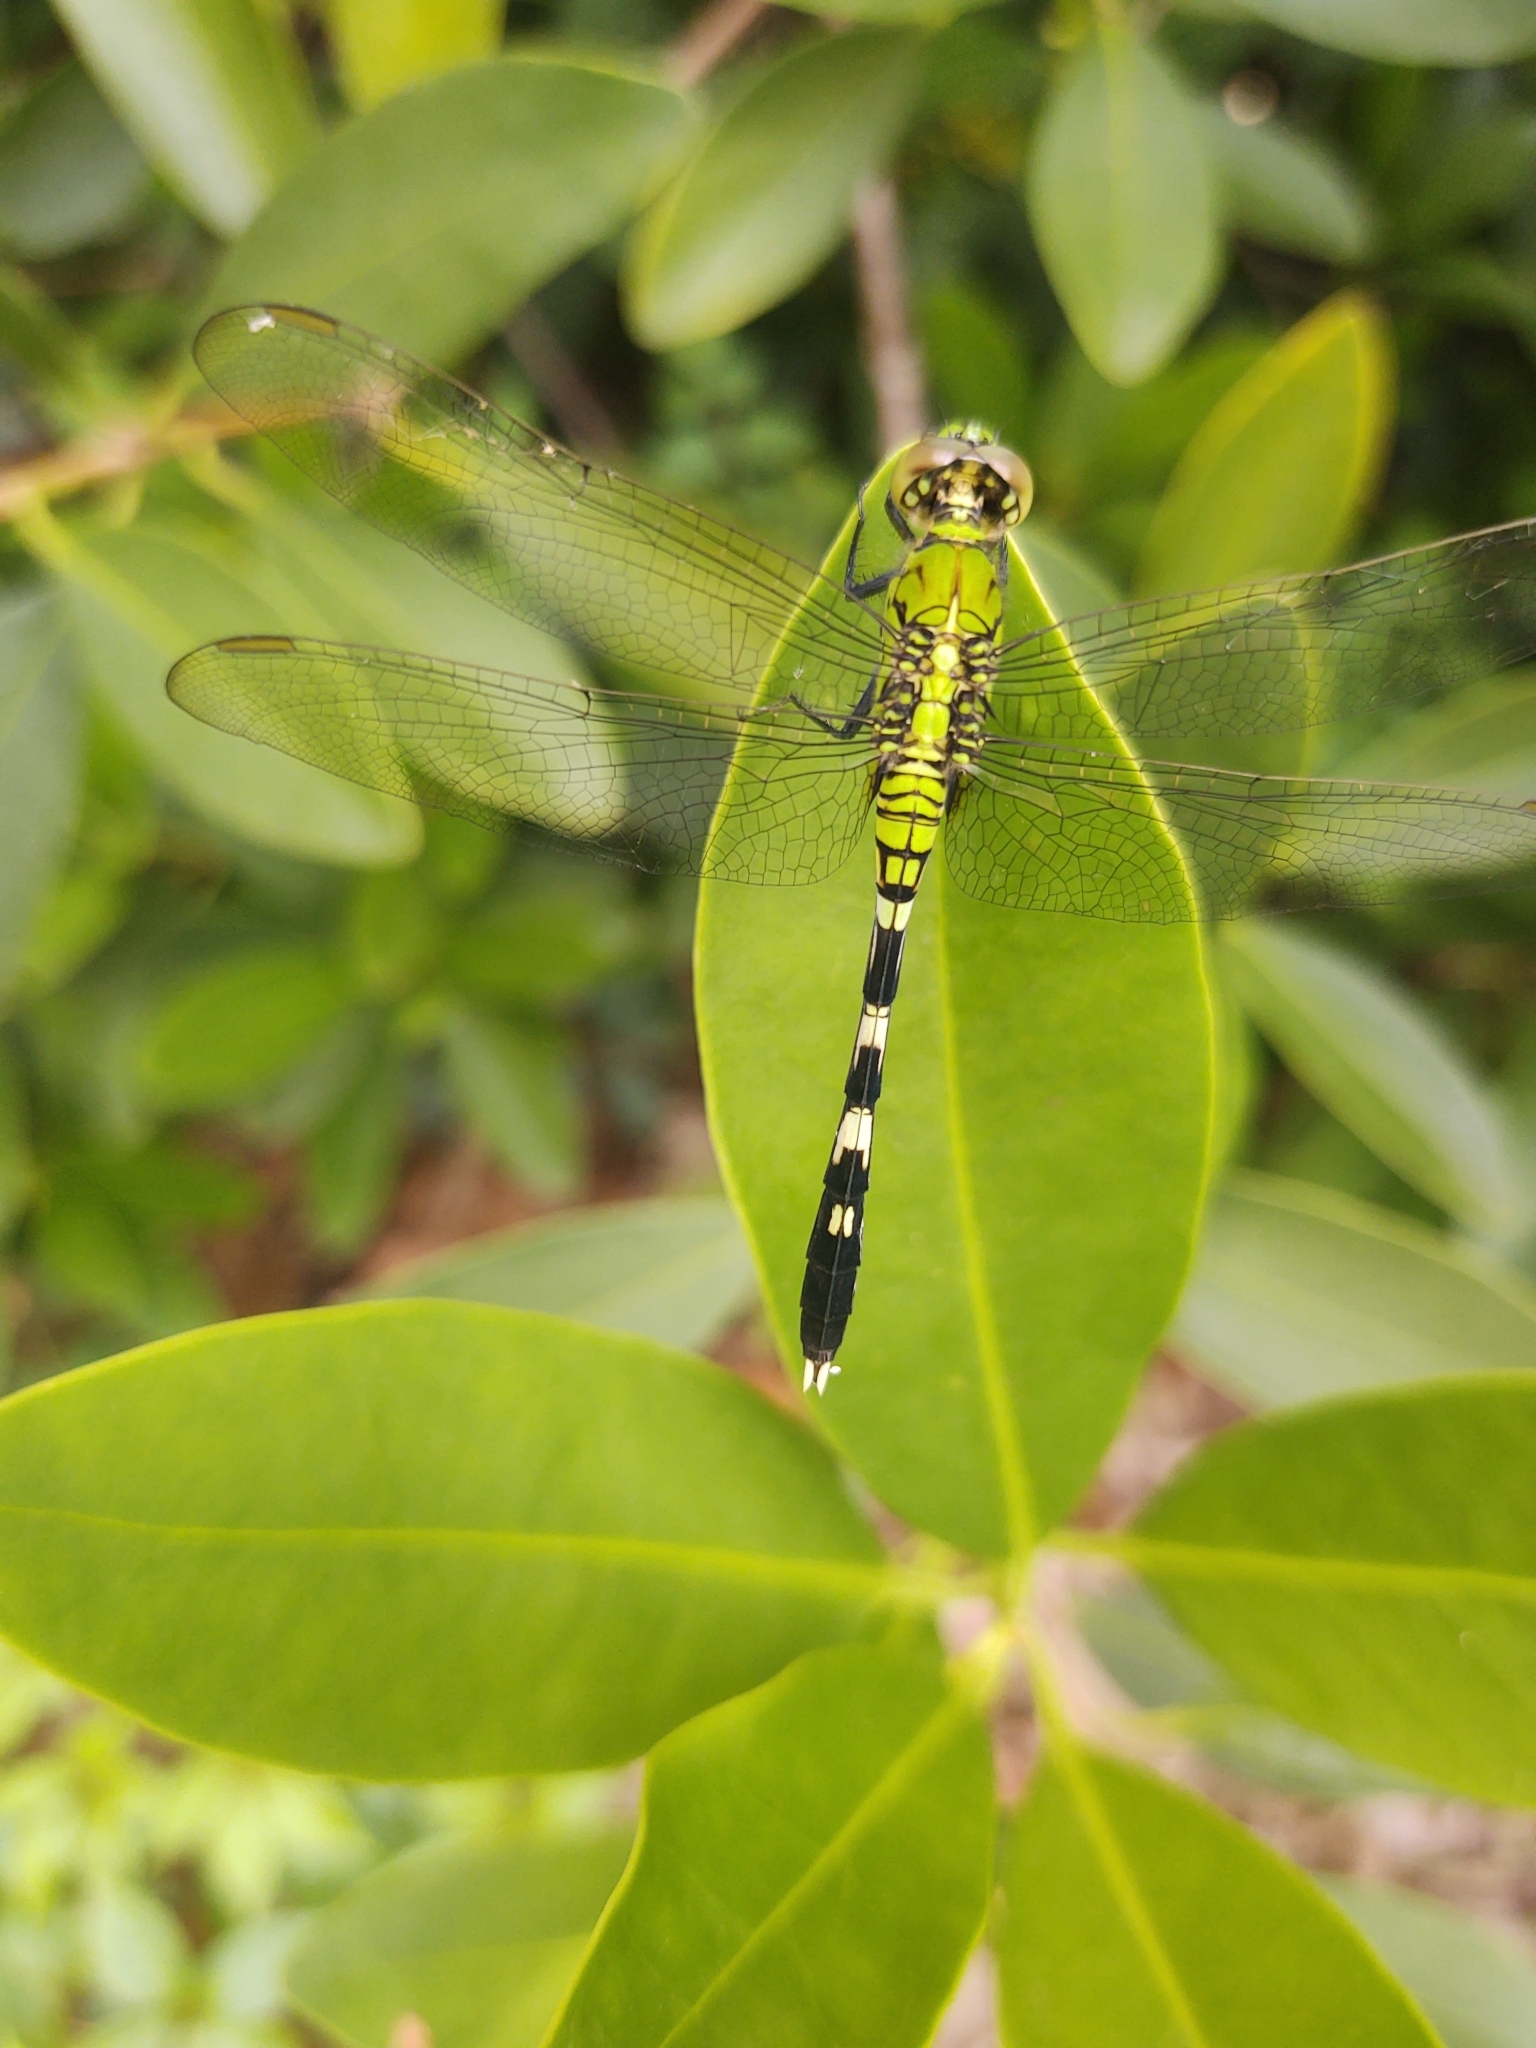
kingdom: Animalia
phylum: Arthropoda
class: Insecta
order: Odonata
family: Libellulidae
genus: Erythemis
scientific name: Erythemis simplicicollis
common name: Eastern pondhawk
